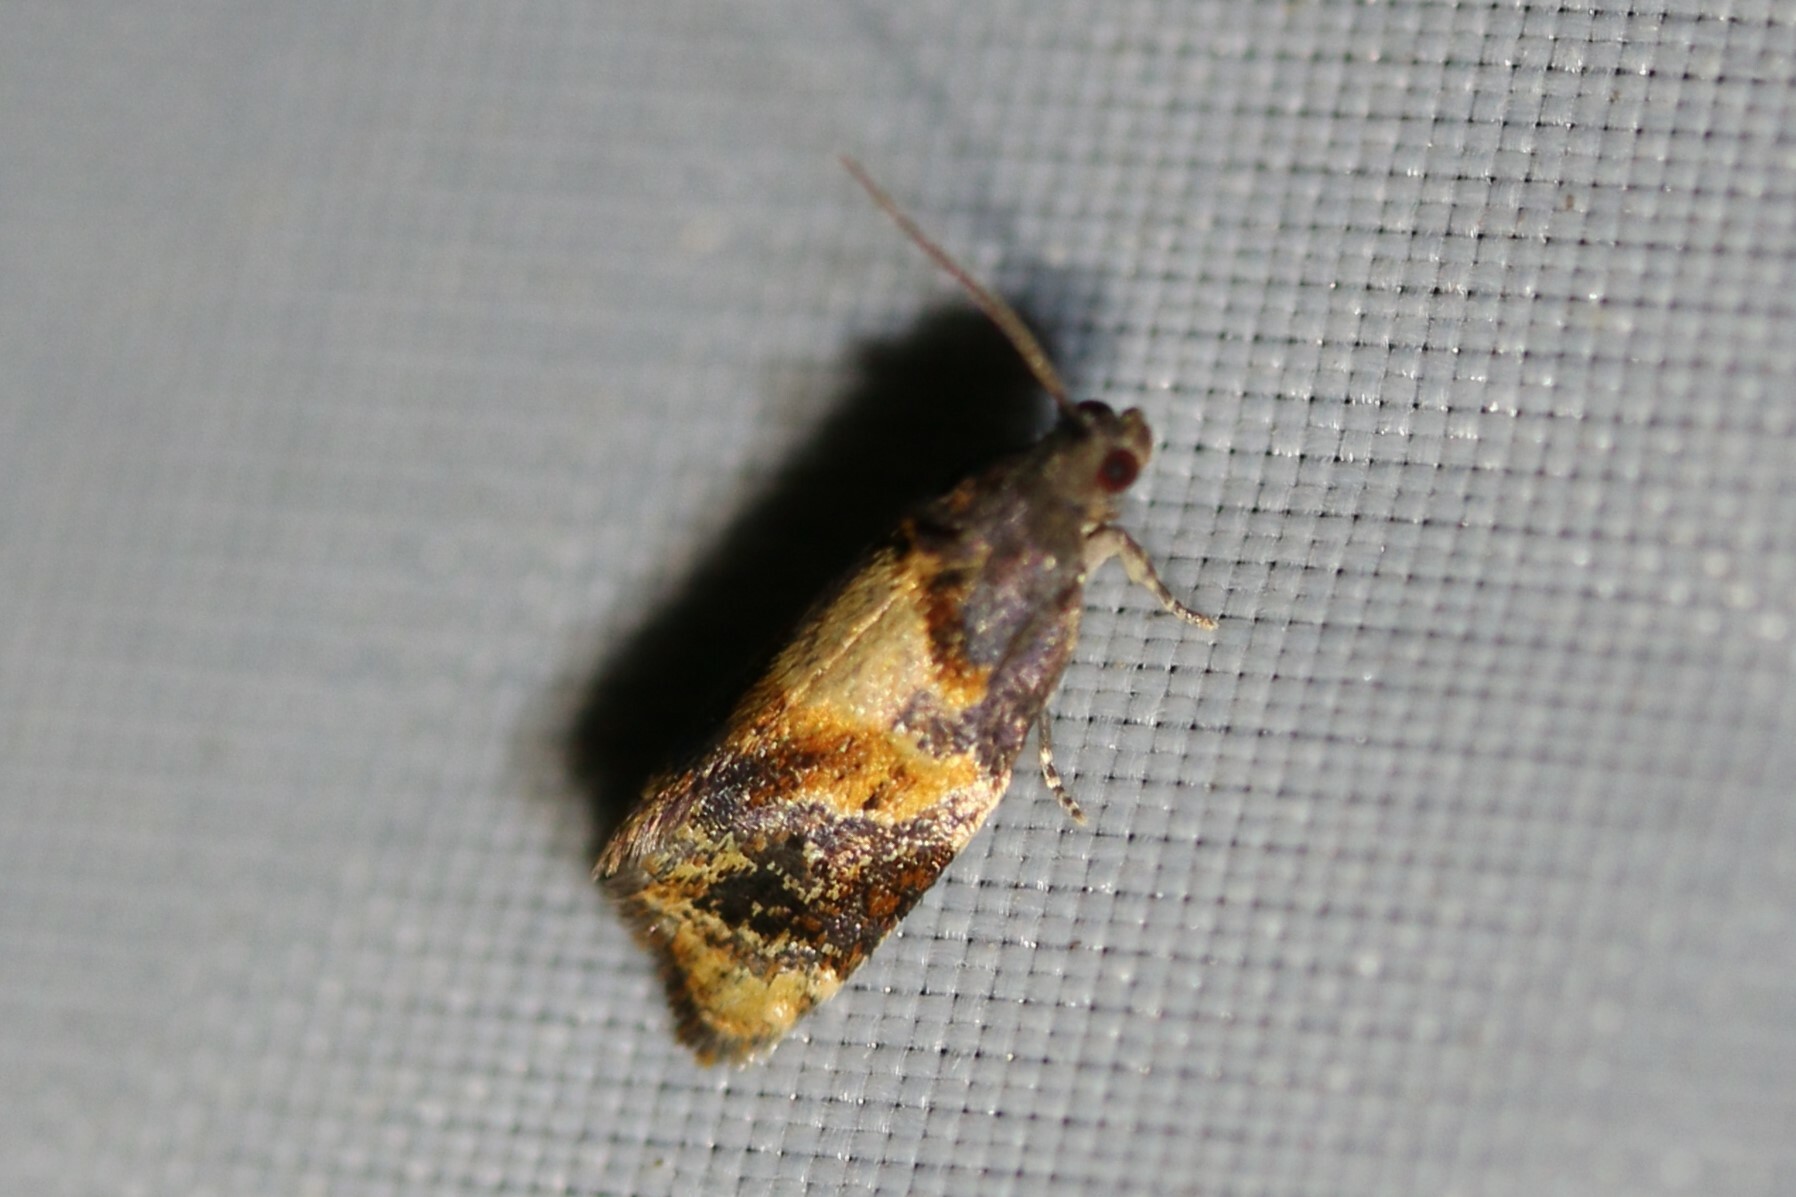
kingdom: Animalia
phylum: Arthropoda
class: Insecta
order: Lepidoptera
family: Tortricidae
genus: Ditula
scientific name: Ditula angustiorana
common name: Red-barred tortrix
